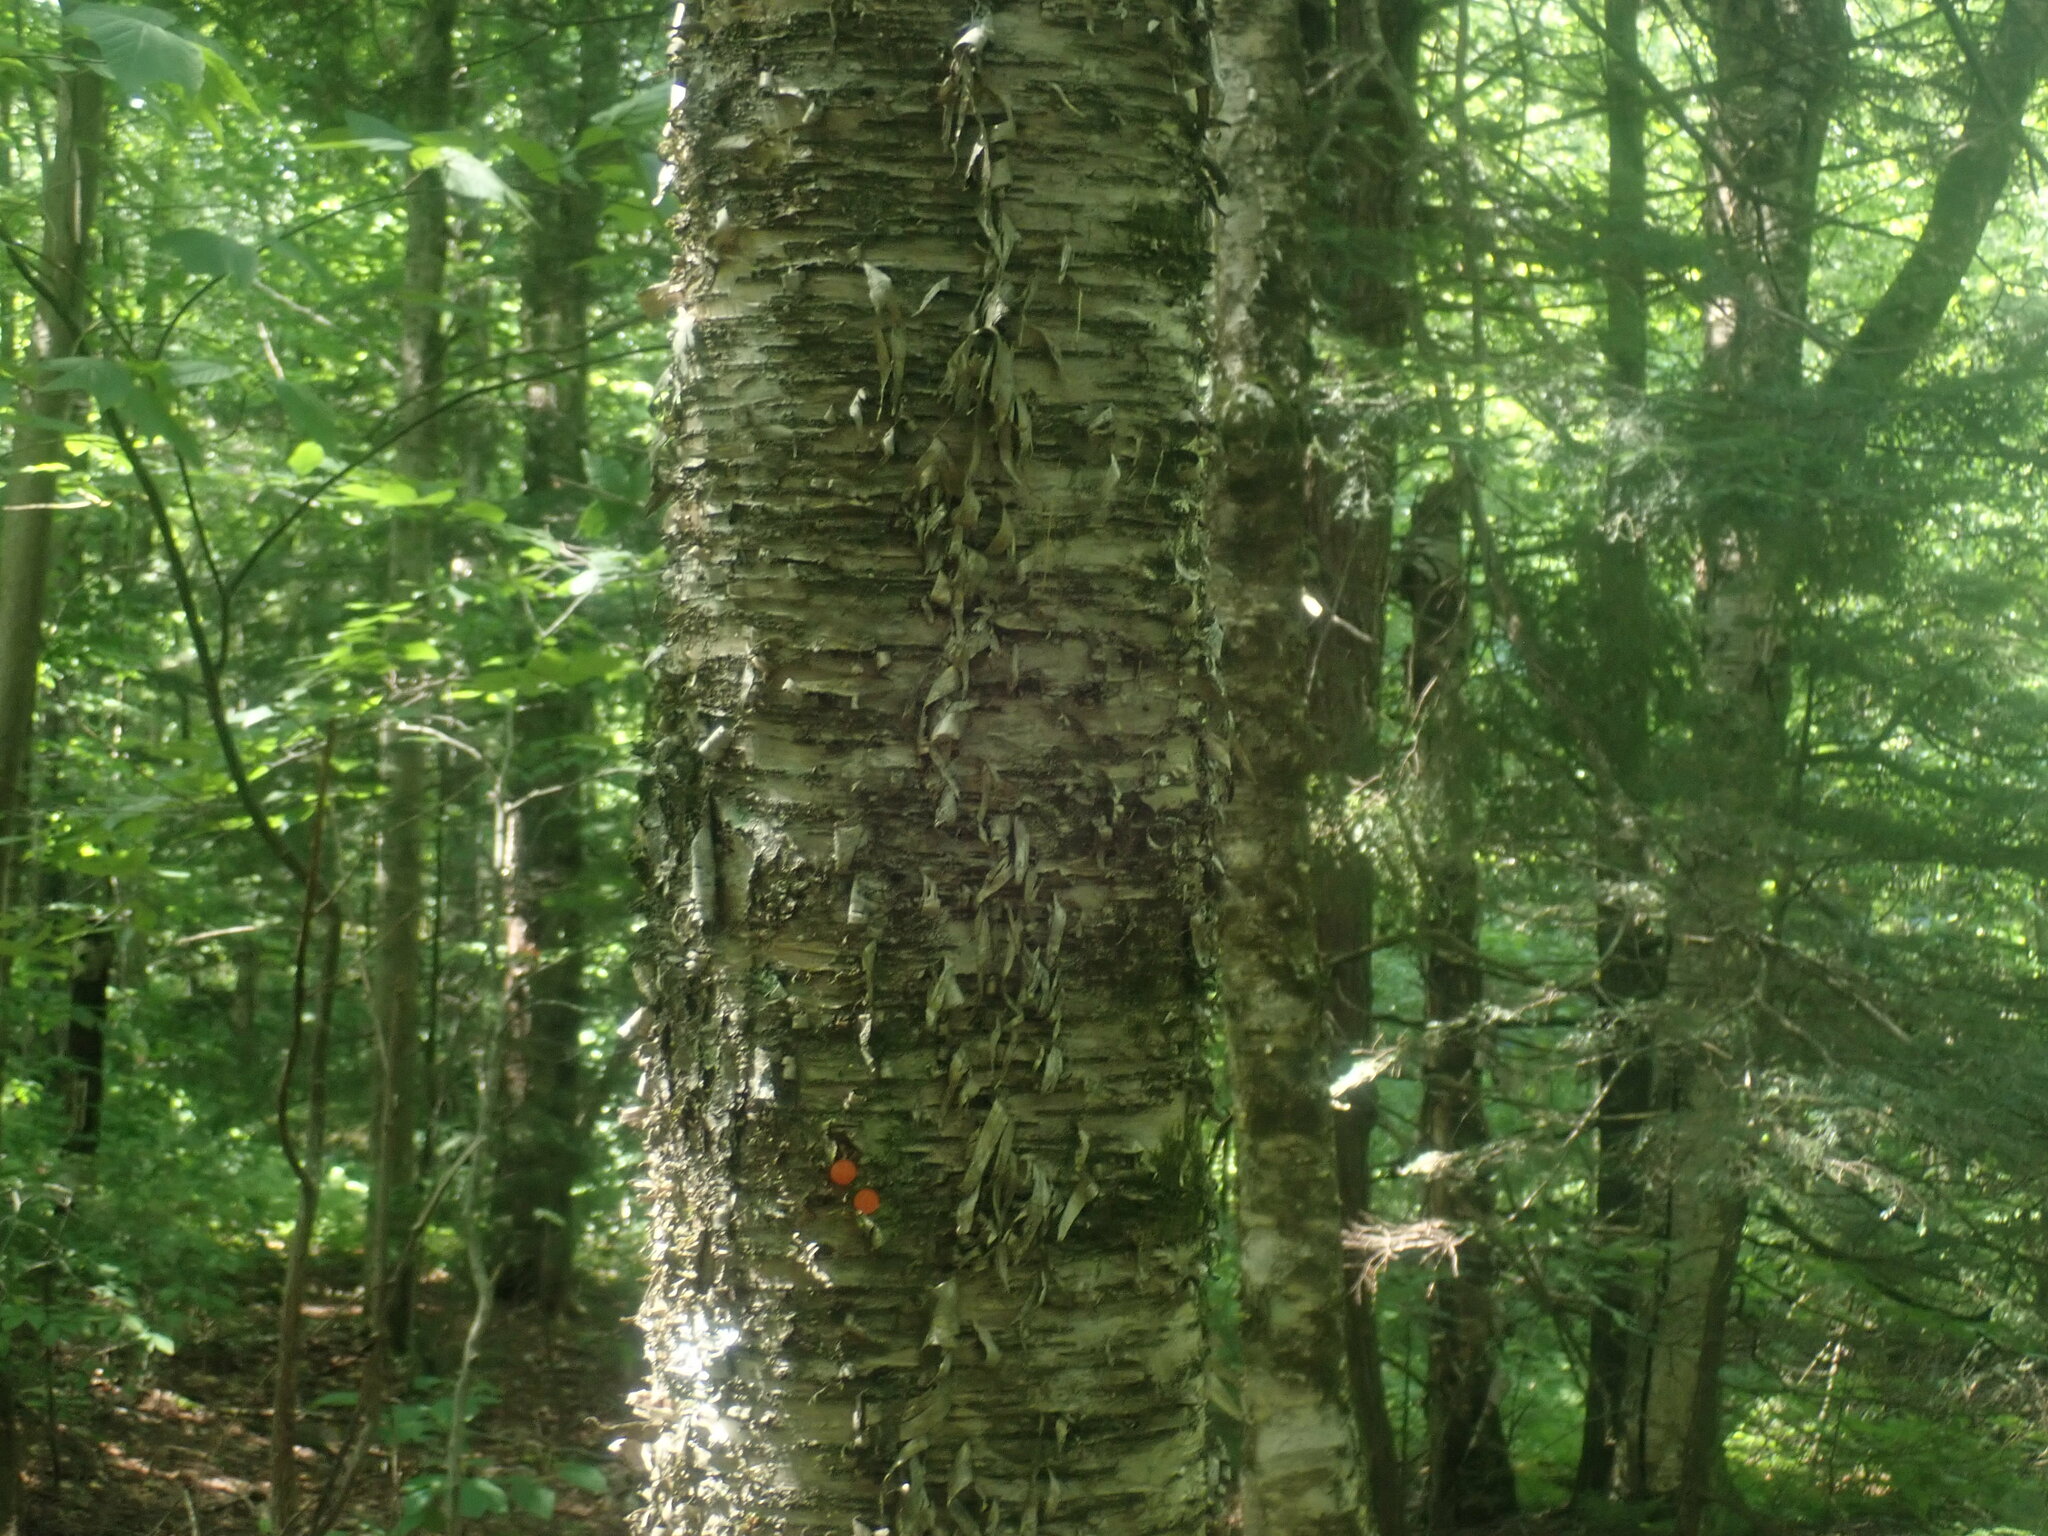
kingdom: Plantae
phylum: Tracheophyta
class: Magnoliopsida
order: Fagales
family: Betulaceae
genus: Betula
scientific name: Betula alleghaniensis
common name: Yellow birch
